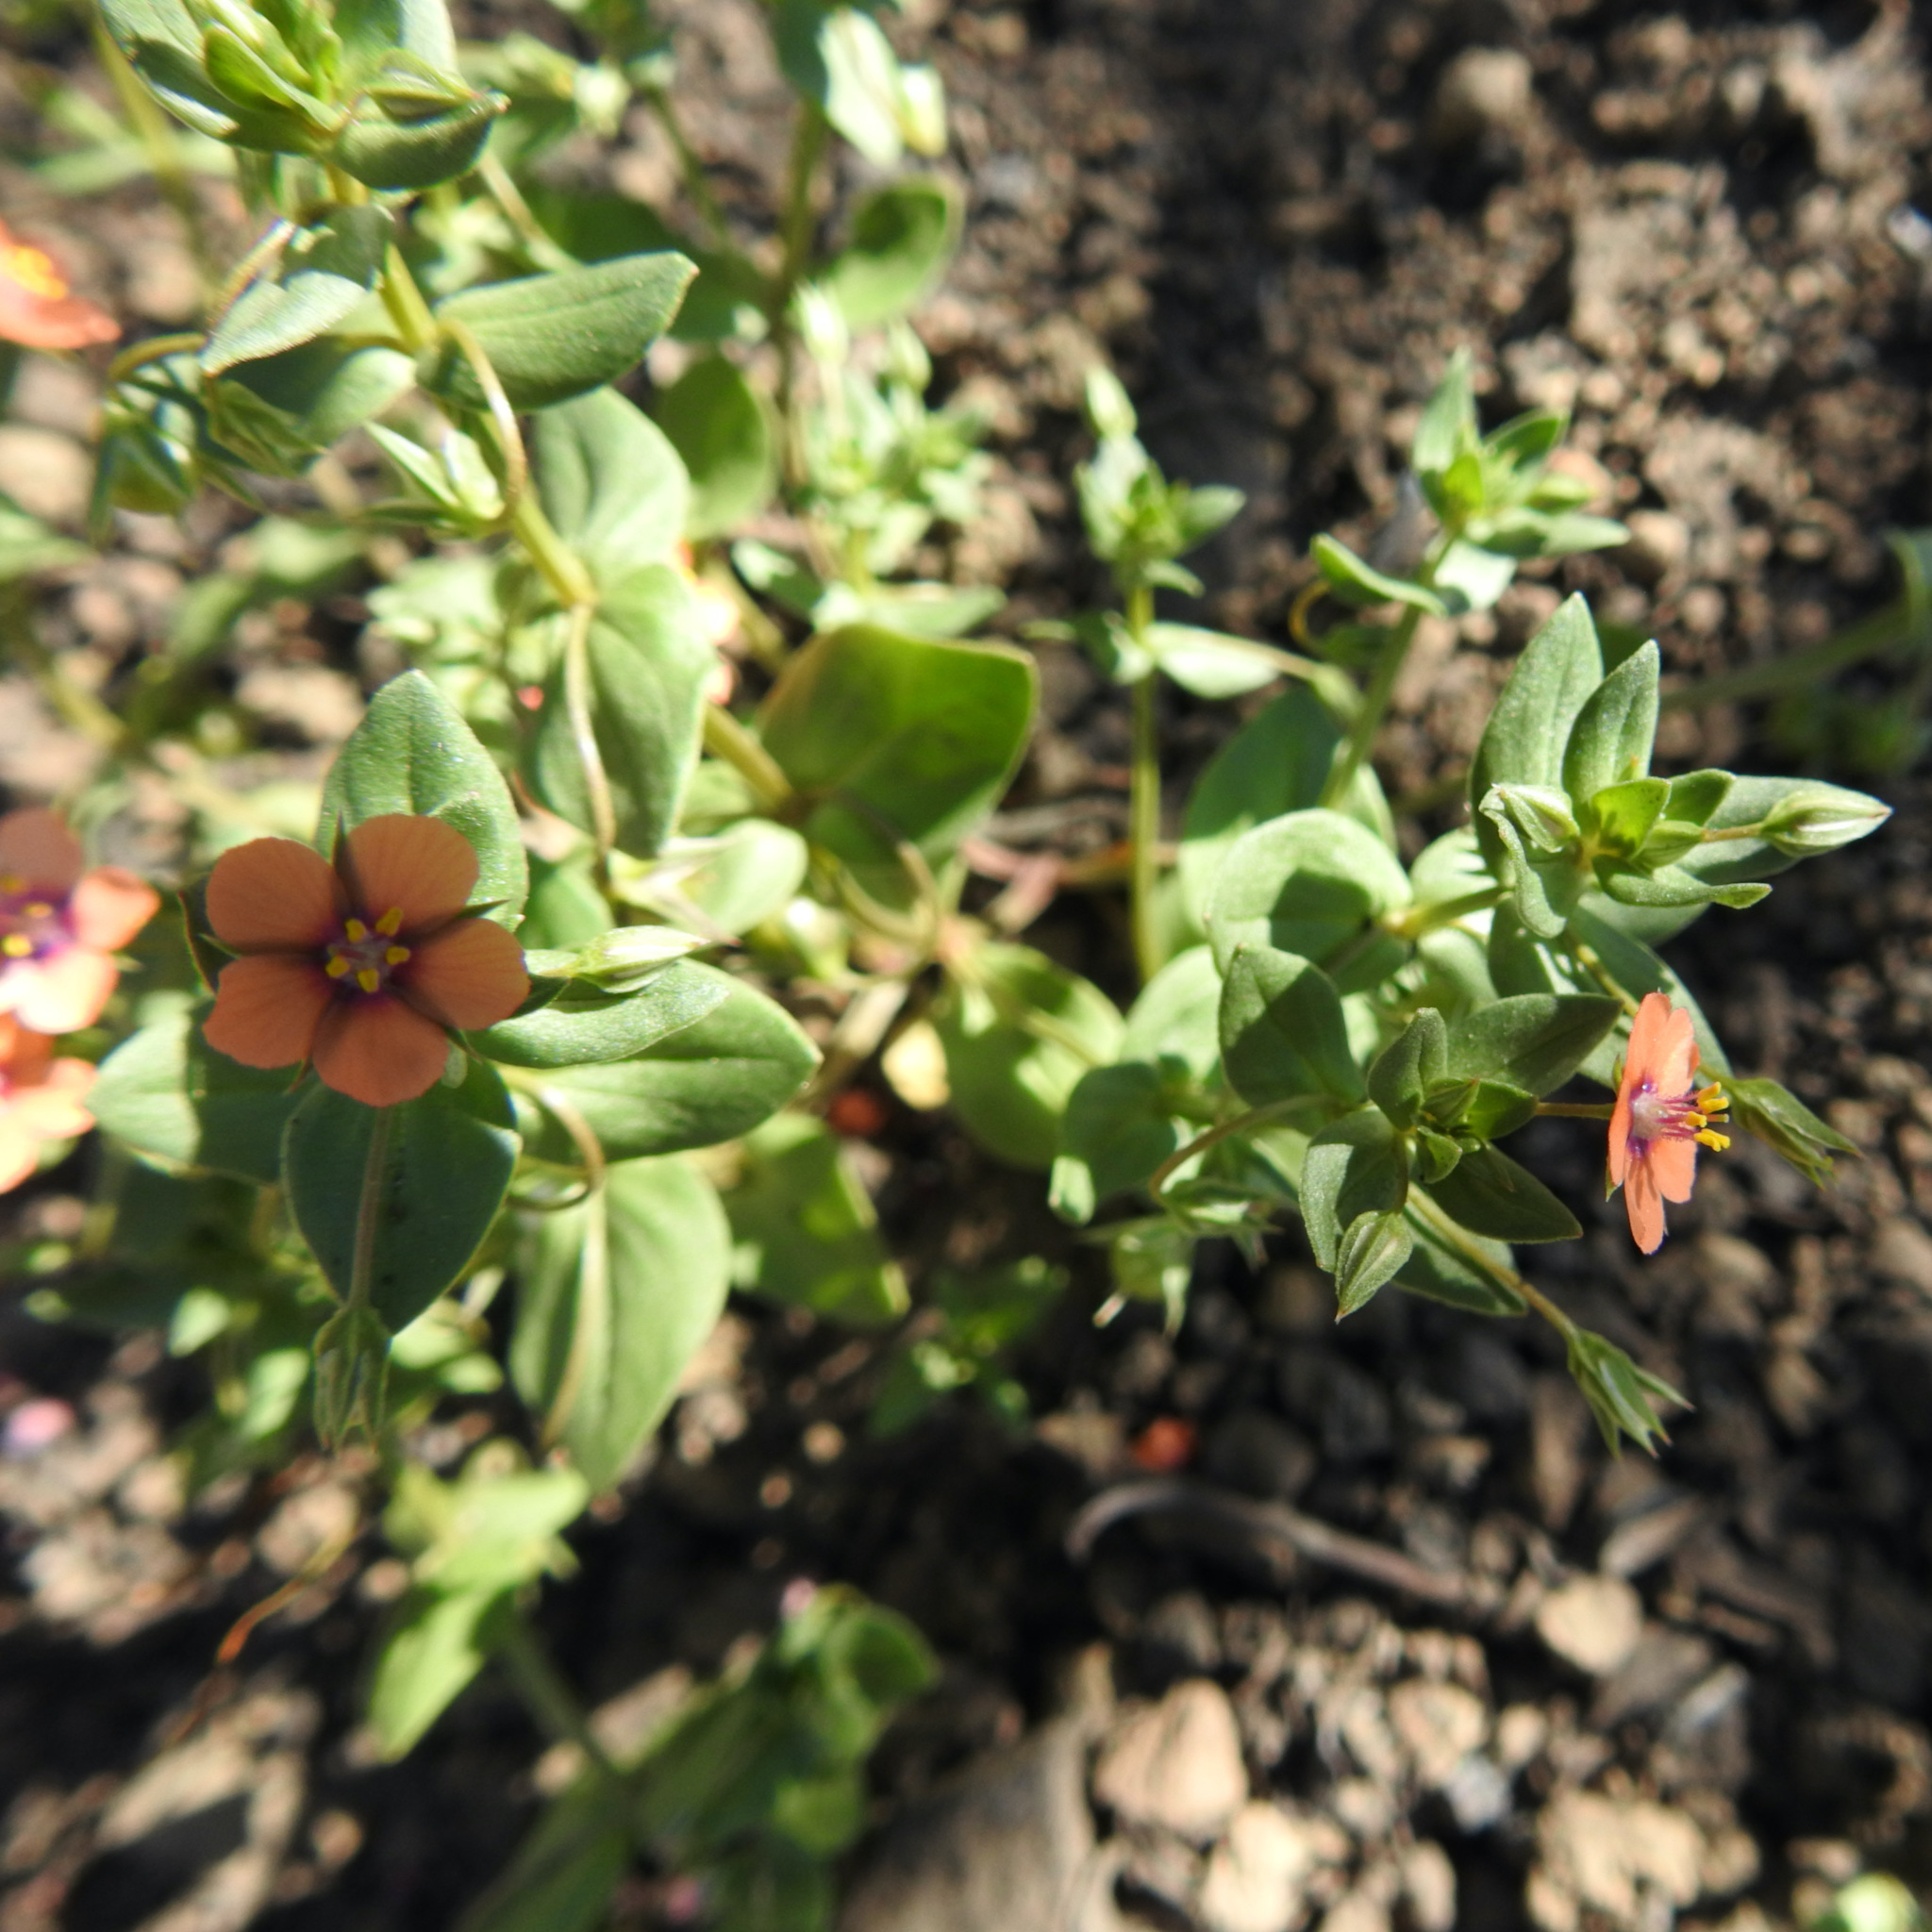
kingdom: Plantae
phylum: Tracheophyta
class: Magnoliopsida
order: Ericales
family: Primulaceae
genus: Lysimachia
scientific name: Lysimachia arvensis
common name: Scarlet pimpernel
